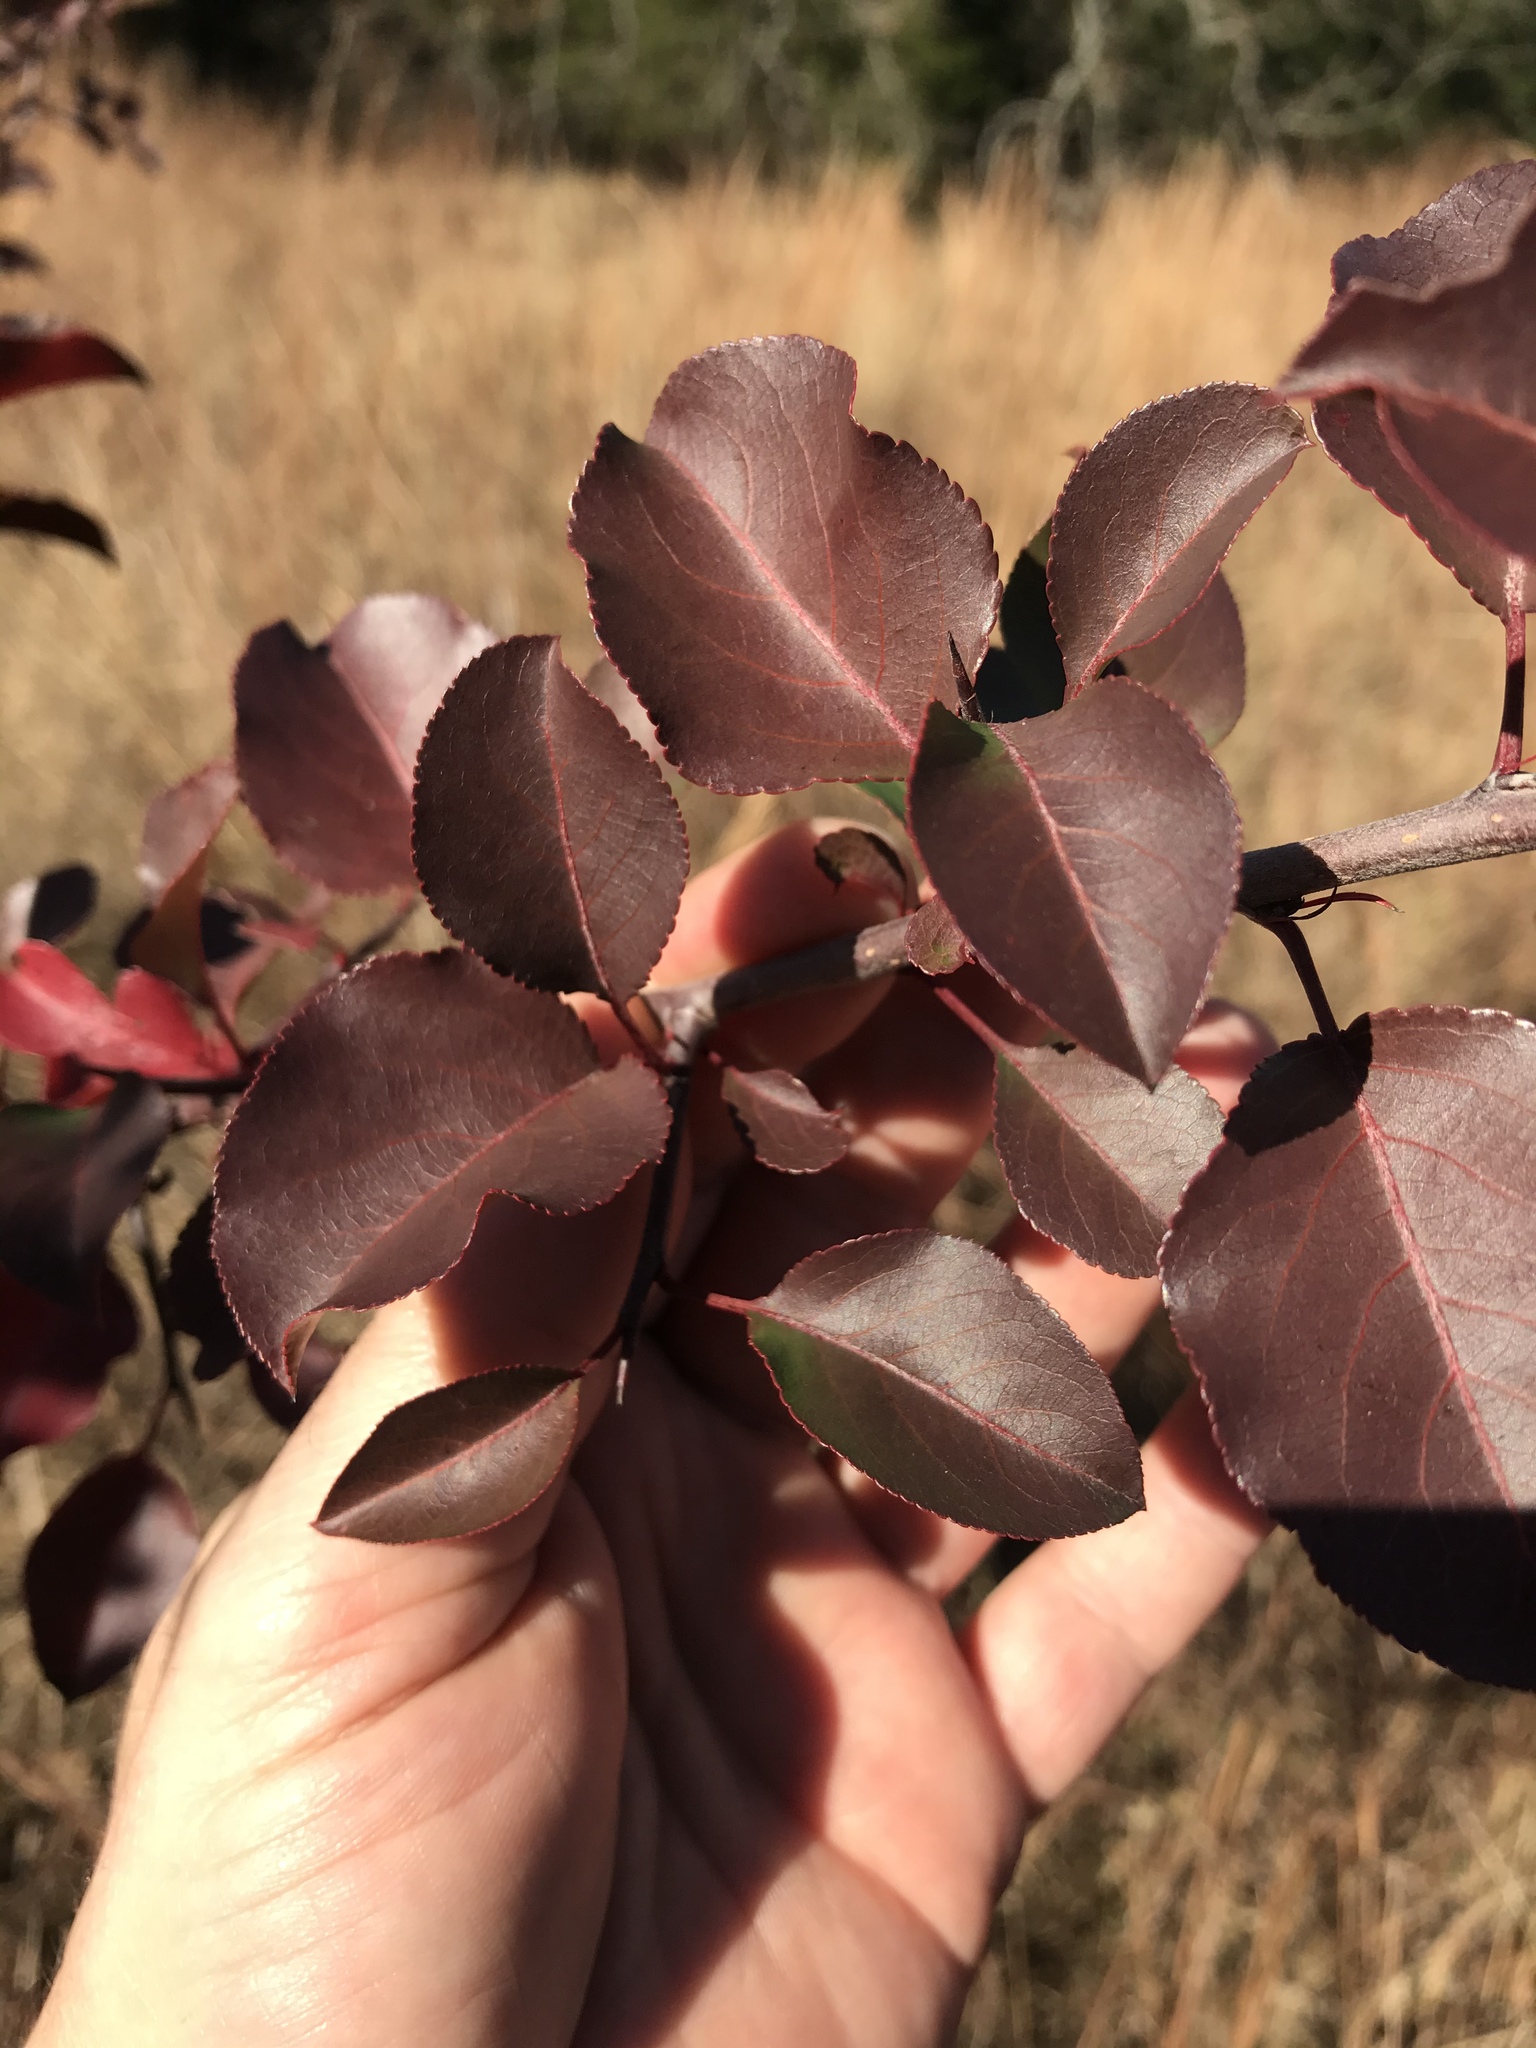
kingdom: Plantae
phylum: Tracheophyta
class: Magnoliopsida
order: Rosales
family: Rosaceae
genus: Pyrus
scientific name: Pyrus calleryana
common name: Callery pear
